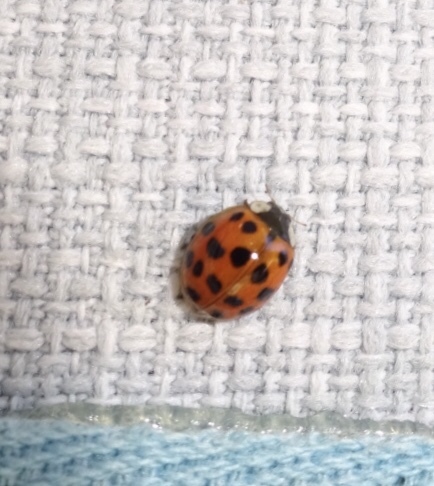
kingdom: Animalia
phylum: Arthropoda
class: Insecta
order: Coleoptera
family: Coccinellidae
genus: Harmonia
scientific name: Harmonia axyridis
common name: Harlequin ladybird
